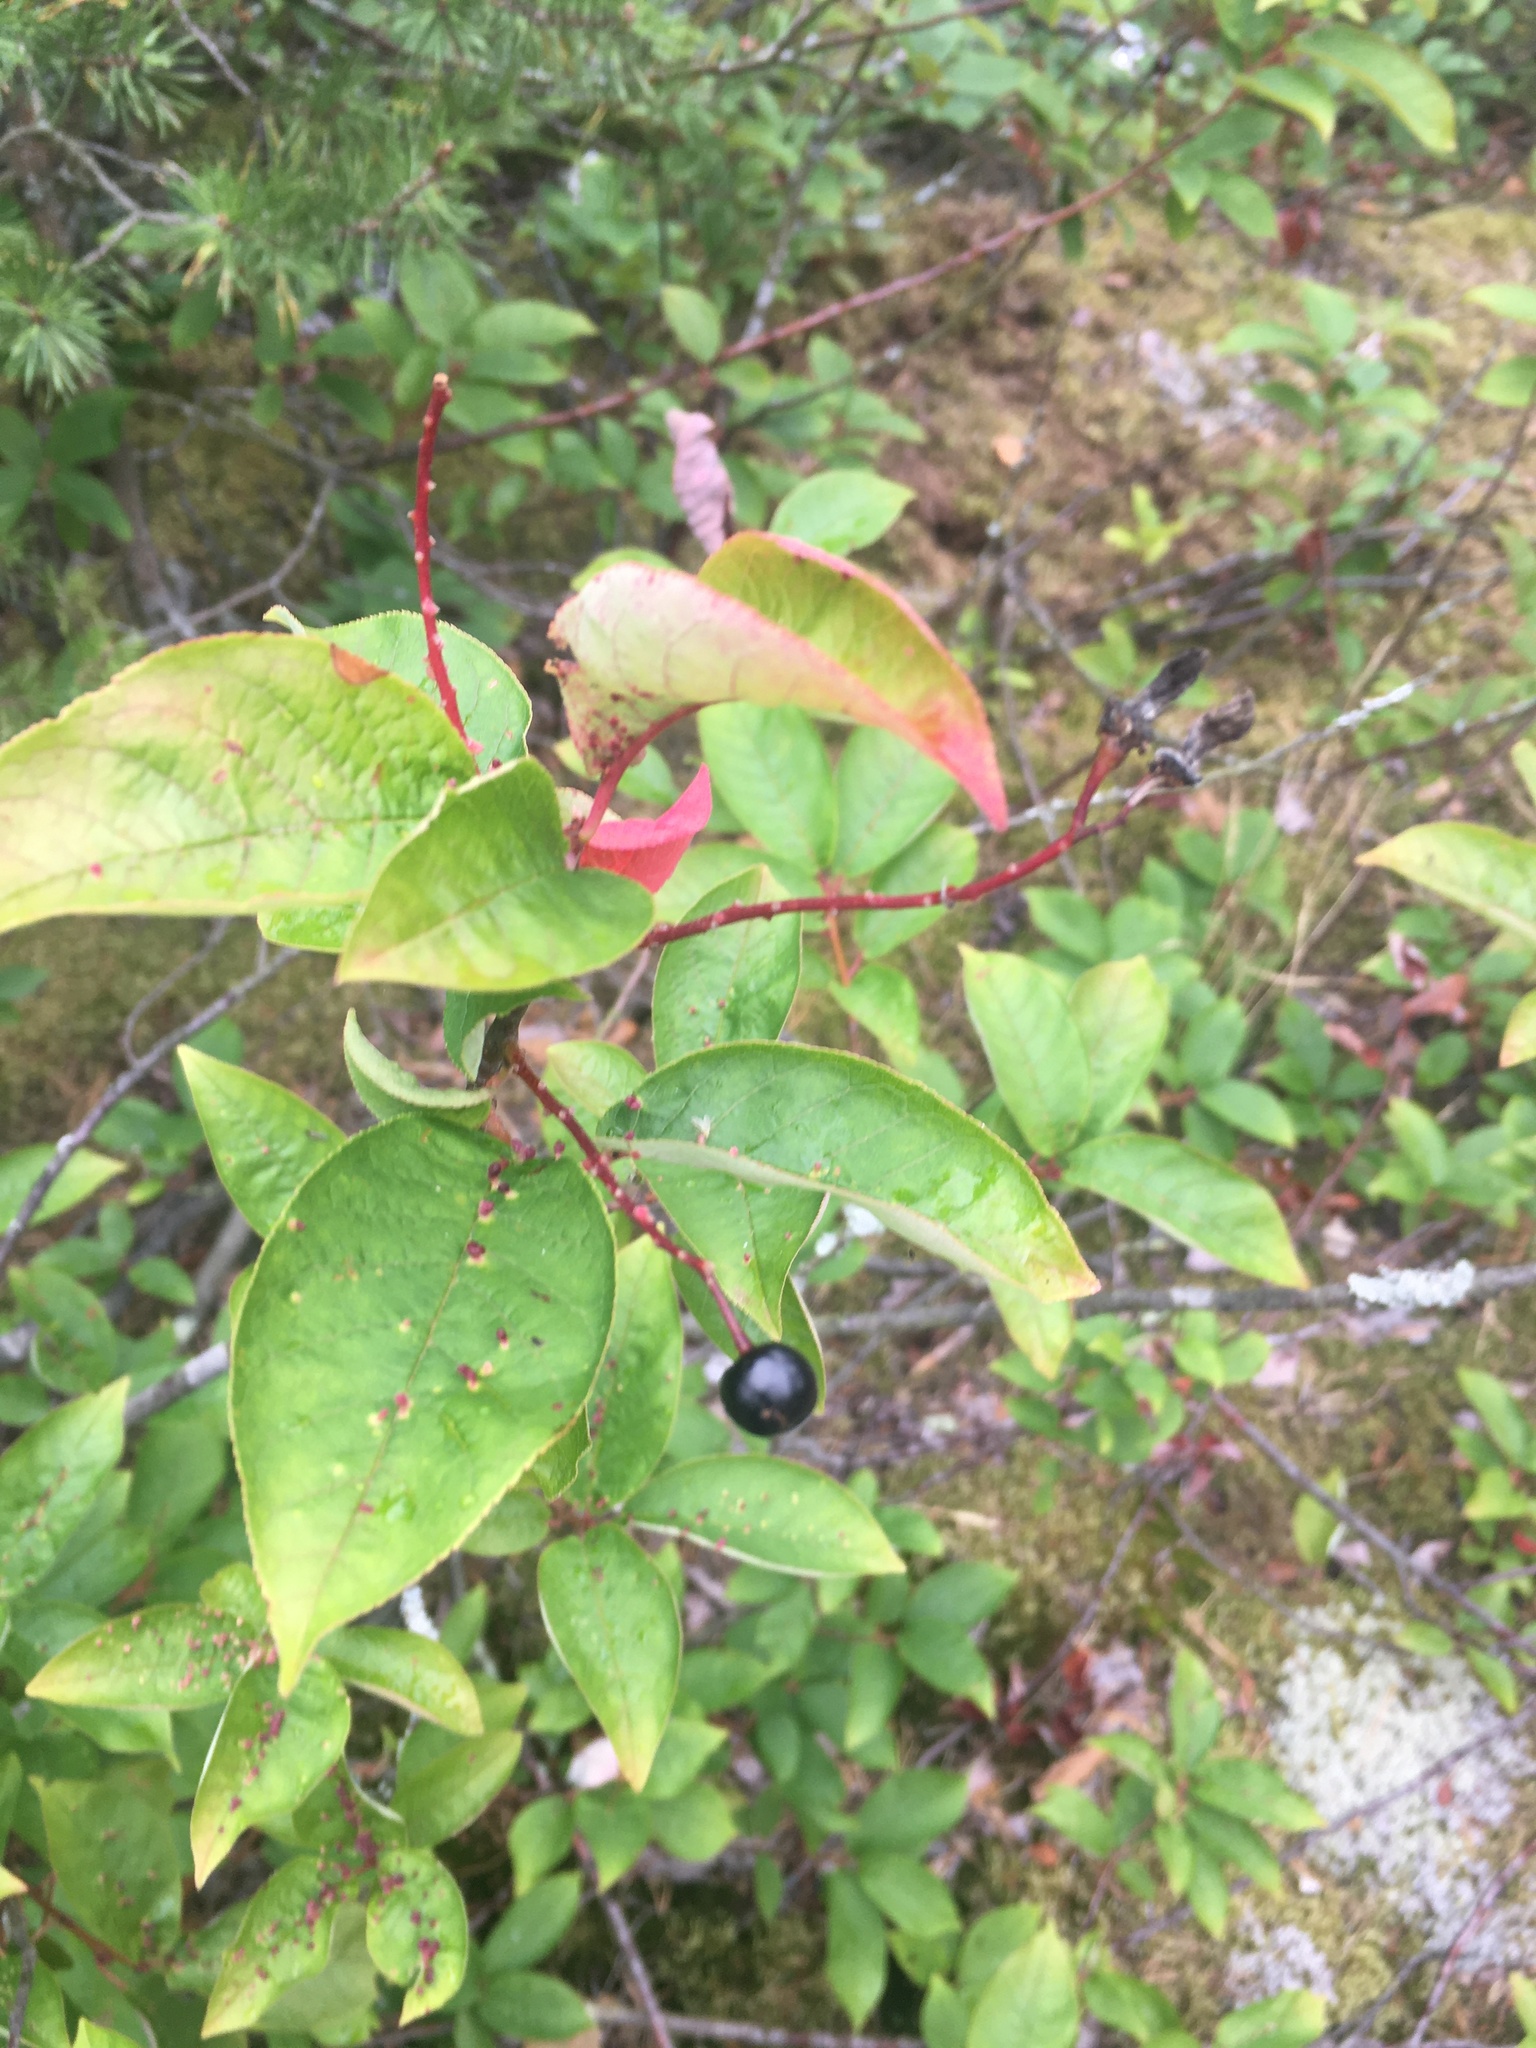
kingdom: Plantae
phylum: Tracheophyta
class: Magnoliopsida
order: Rosales
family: Rosaceae
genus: Prunus
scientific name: Prunus padus
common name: Bird cherry
